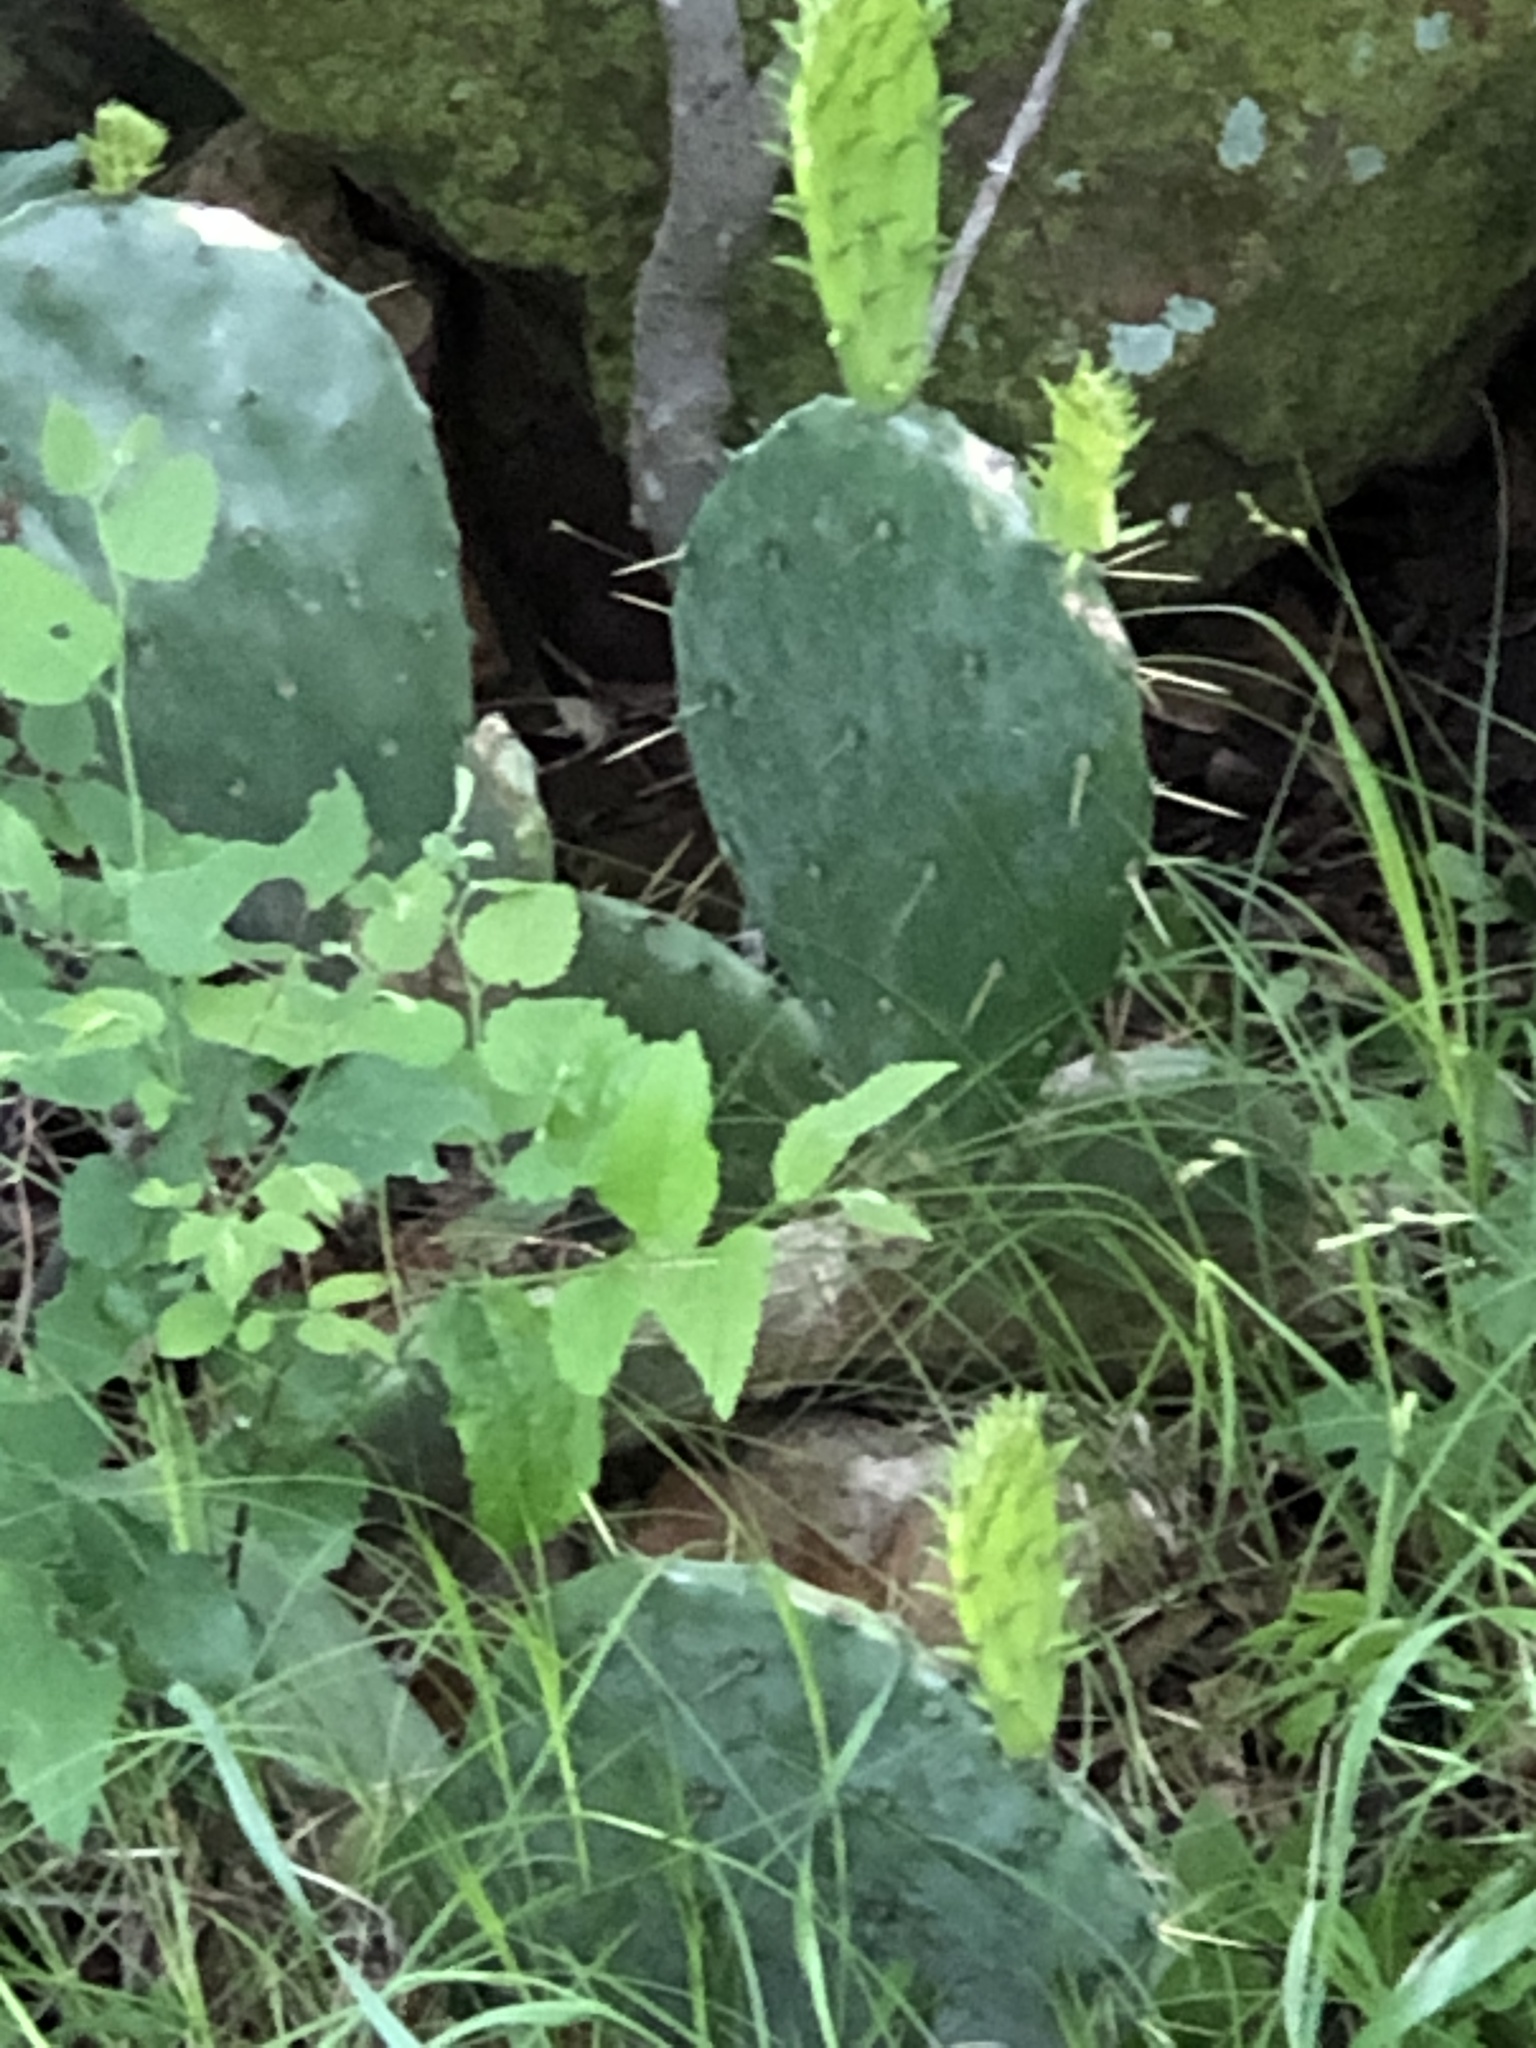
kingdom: Plantae
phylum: Tracheophyta
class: Magnoliopsida
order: Caryophyllales
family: Cactaceae
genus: Opuntia
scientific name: Opuntia engelmannii
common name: Cactus-apple
